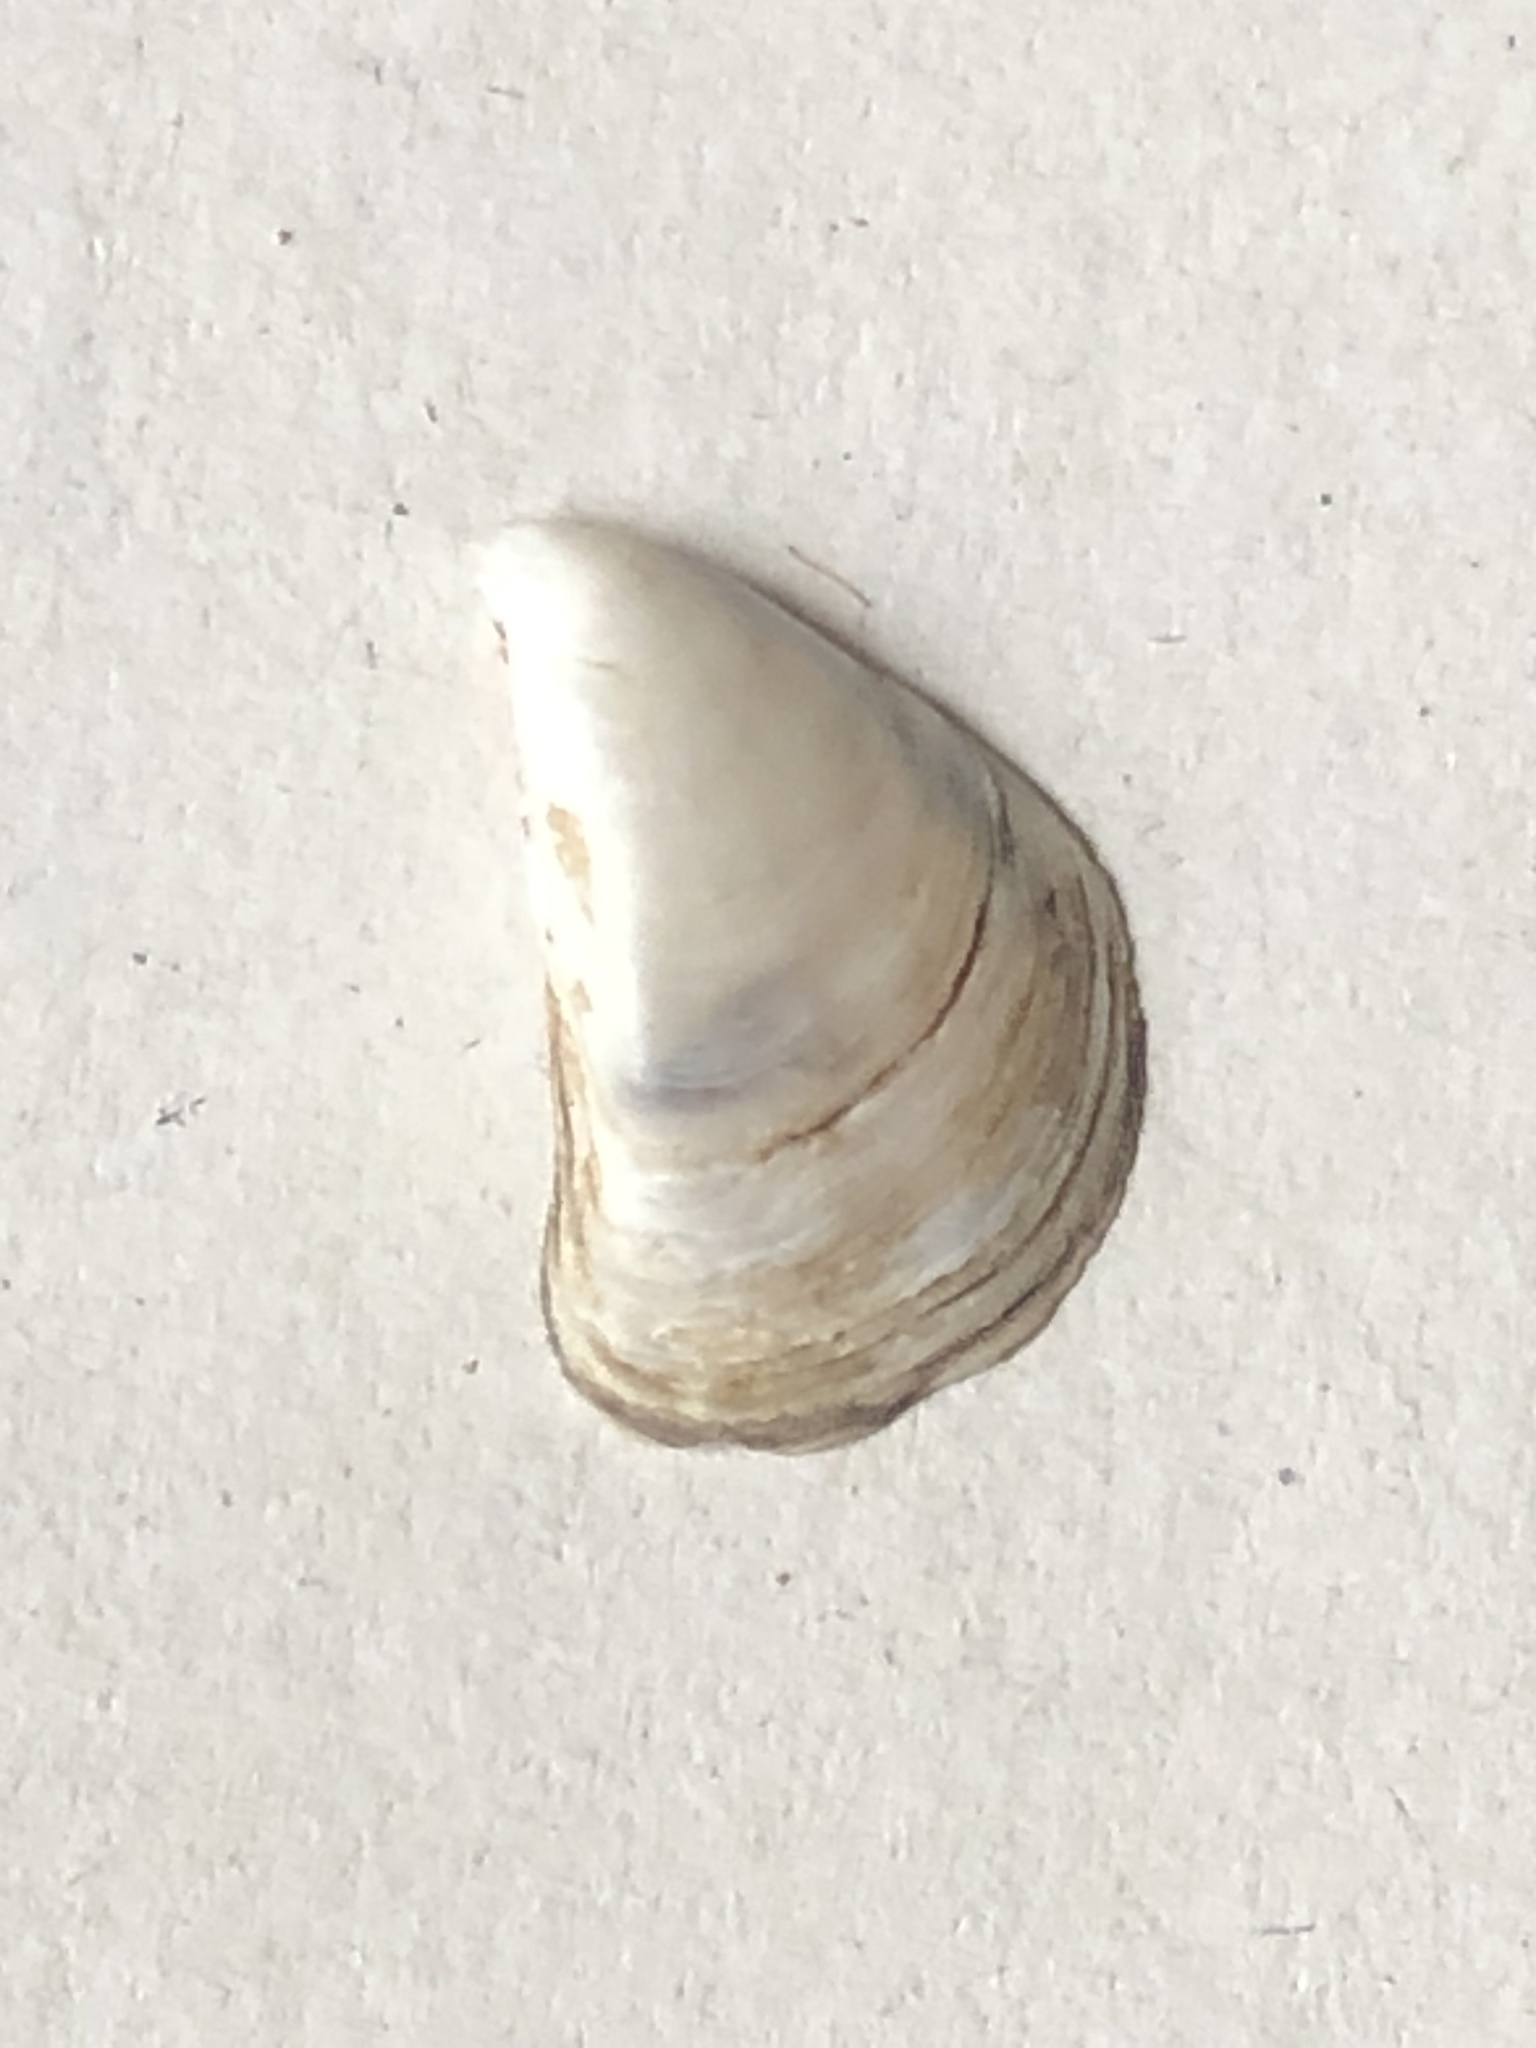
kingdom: Animalia
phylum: Mollusca
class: Bivalvia
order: Myida
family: Dreissenidae
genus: Dreissena
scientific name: Dreissena polymorpha
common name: Zebra mussel
